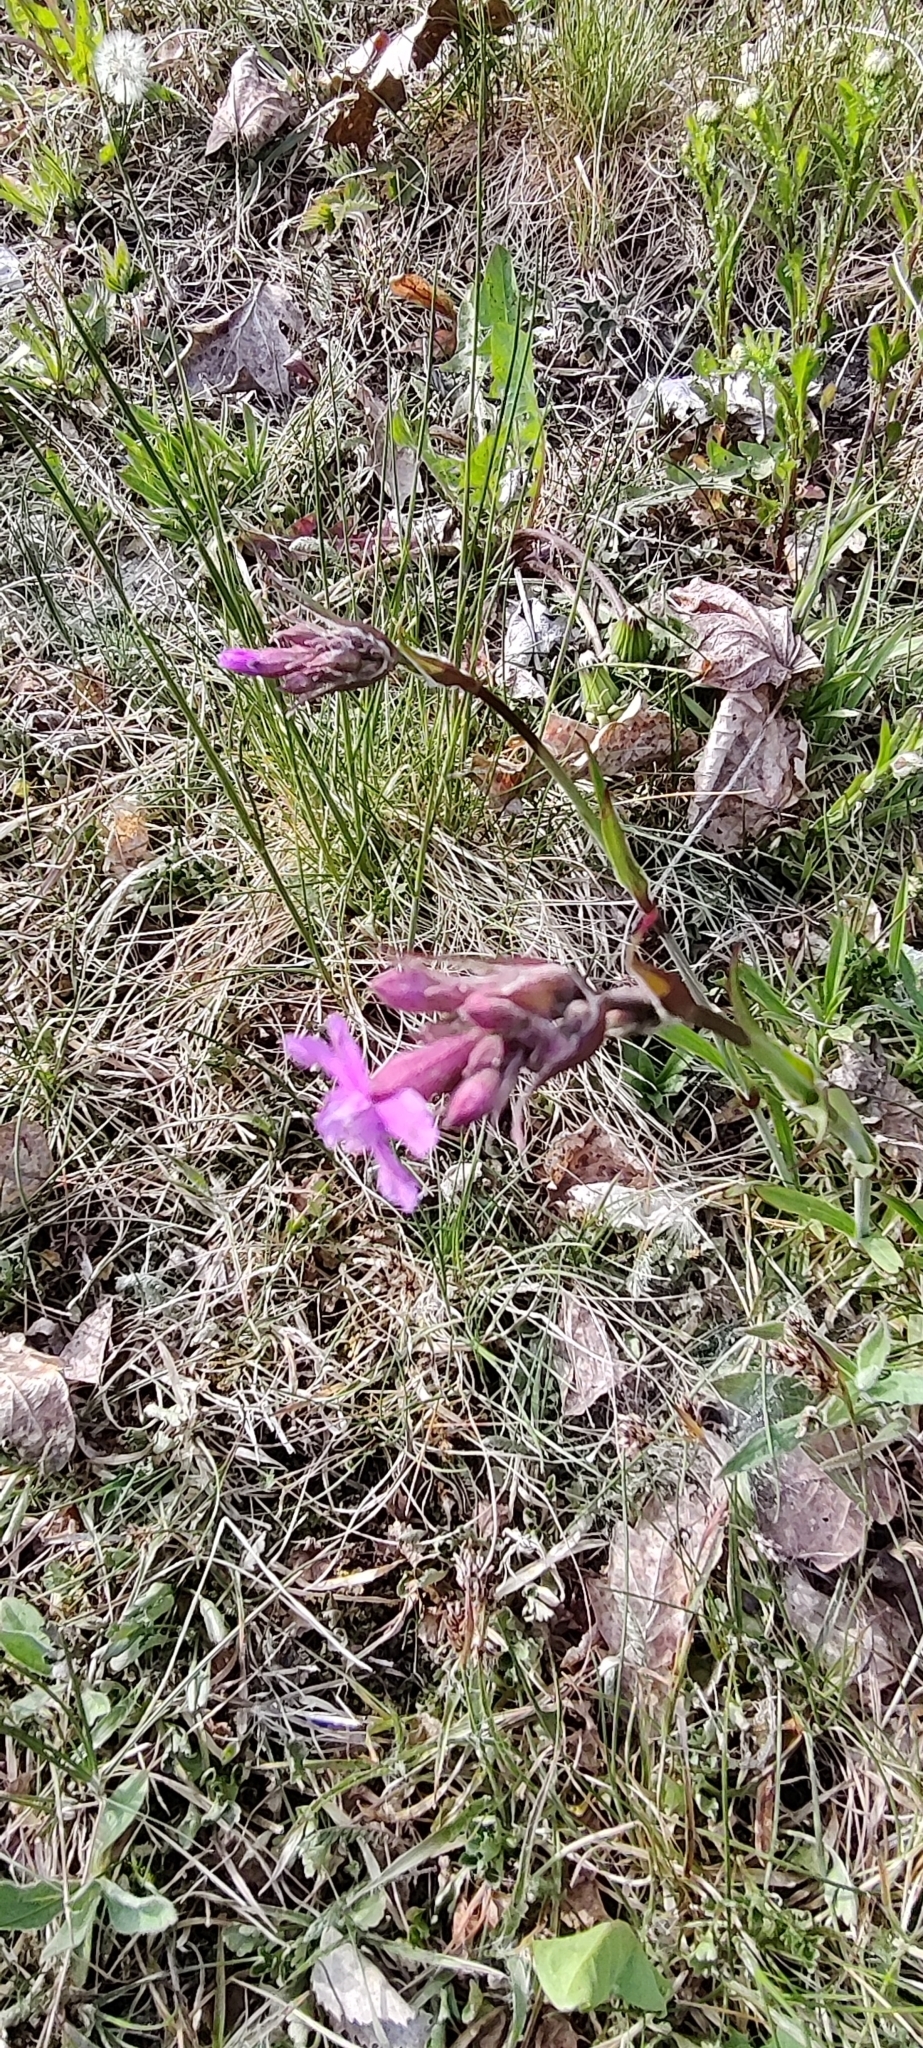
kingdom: Plantae
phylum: Tracheophyta
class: Magnoliopsida
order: Caryophyllales
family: Caryophyllaceae
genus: Viscaria
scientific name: Viscaria vulgaris
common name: Clammy campion
